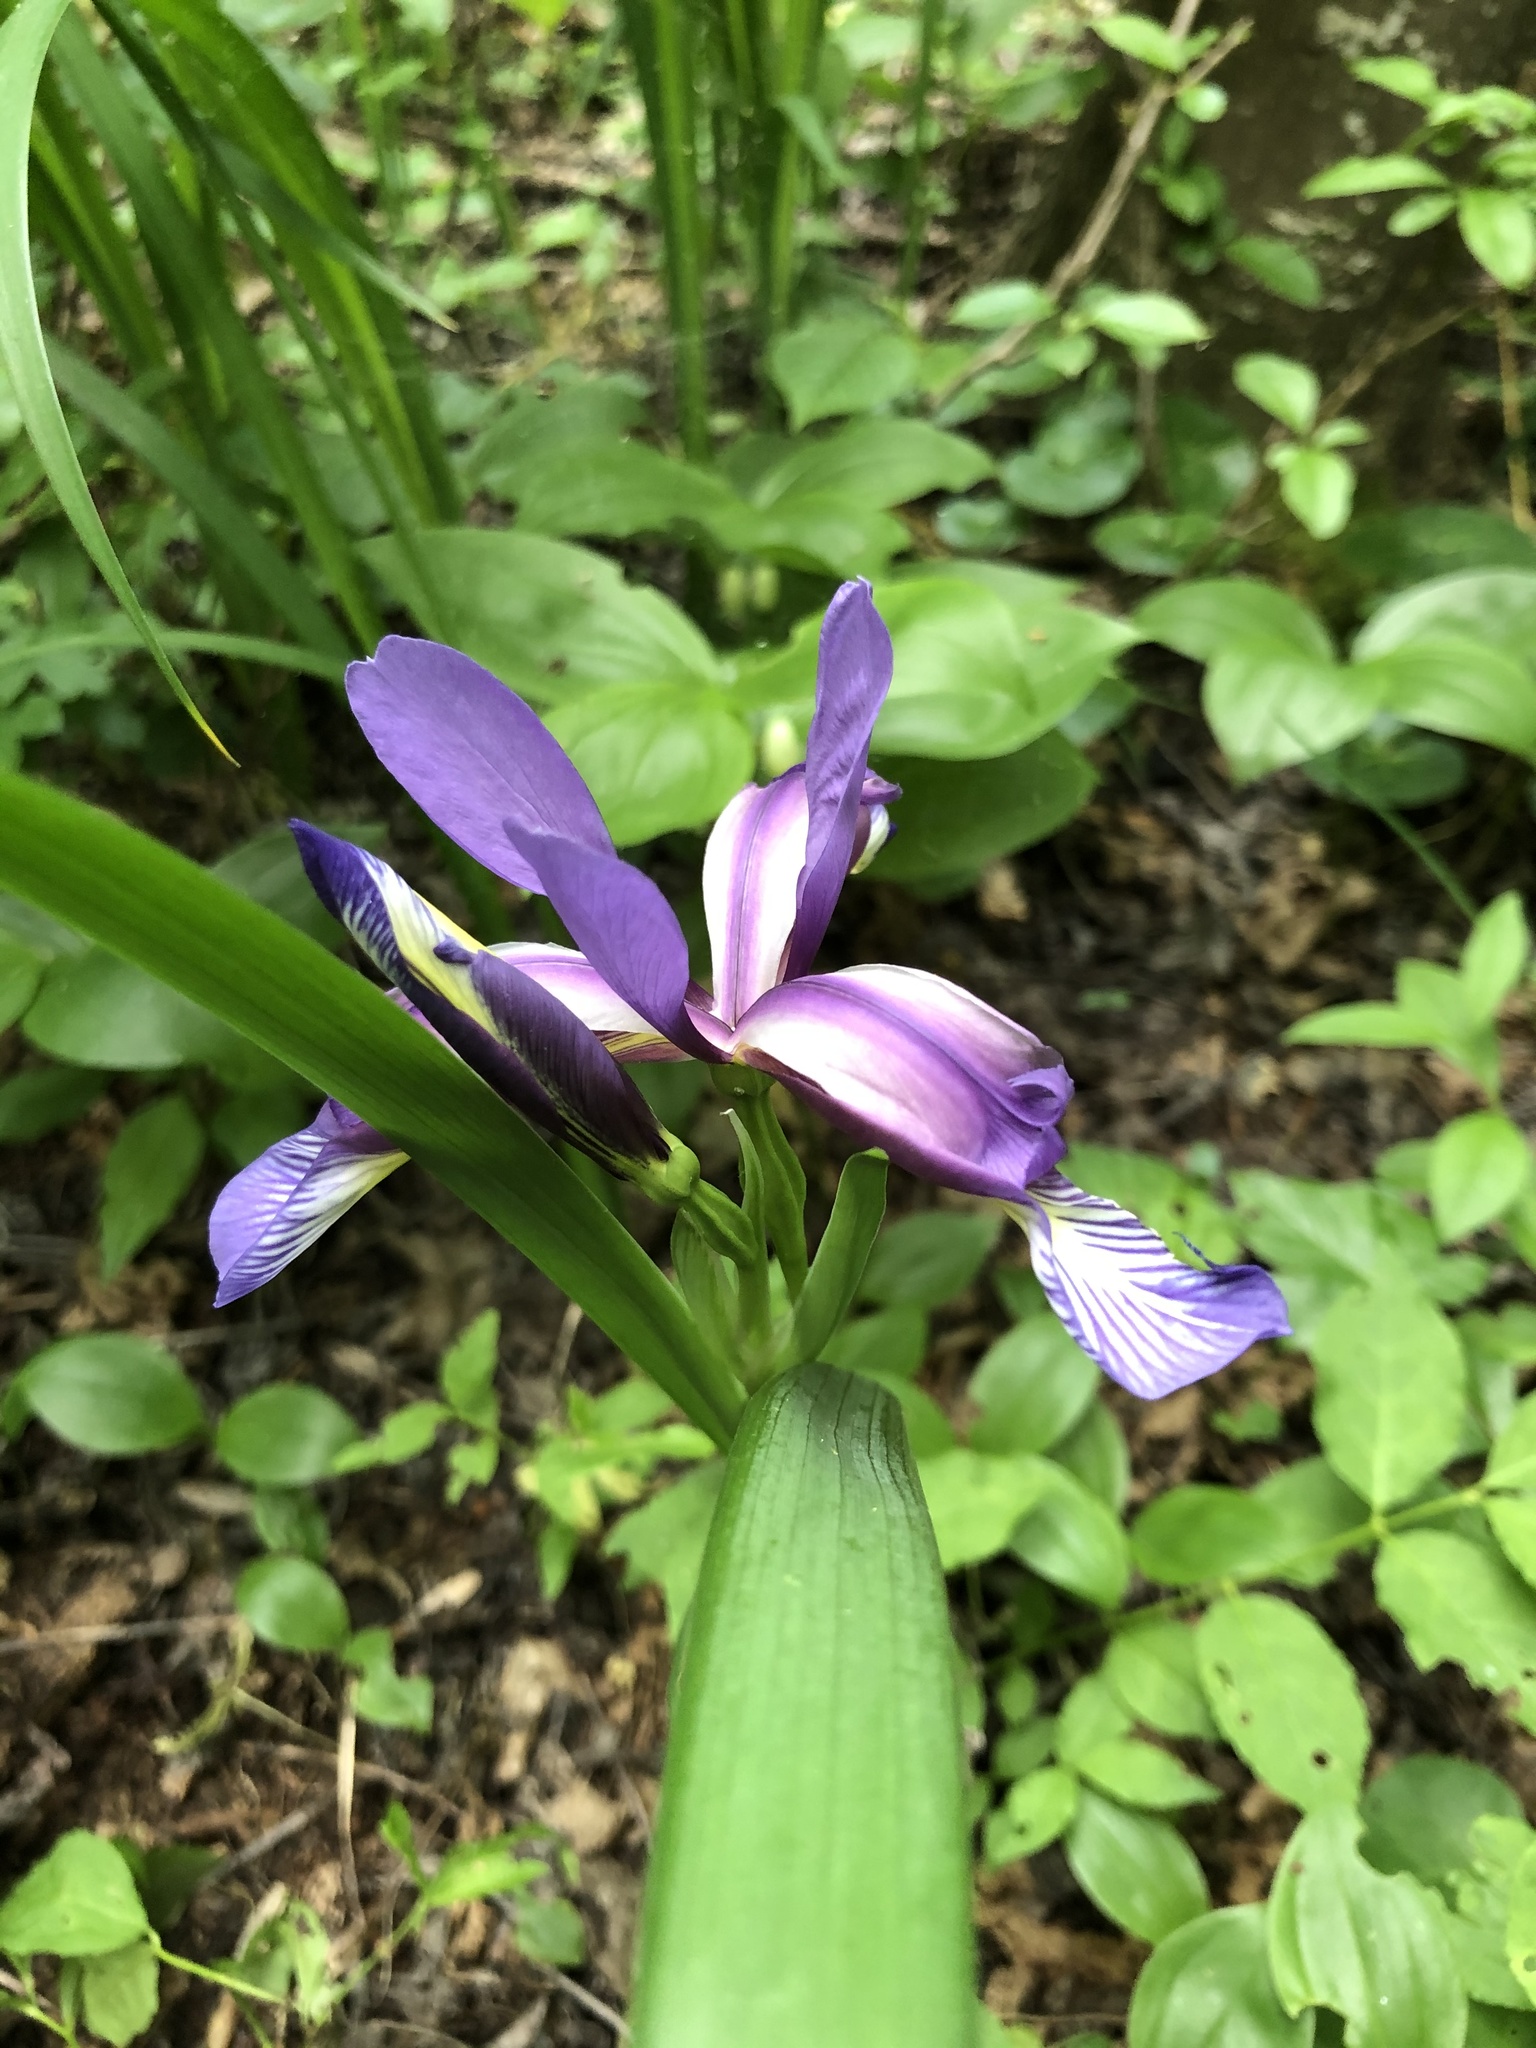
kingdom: Plantae
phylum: Tracheophyta
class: Liliopsida
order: Asparagales
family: Iridaceae
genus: Iris
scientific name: Iris graminea
